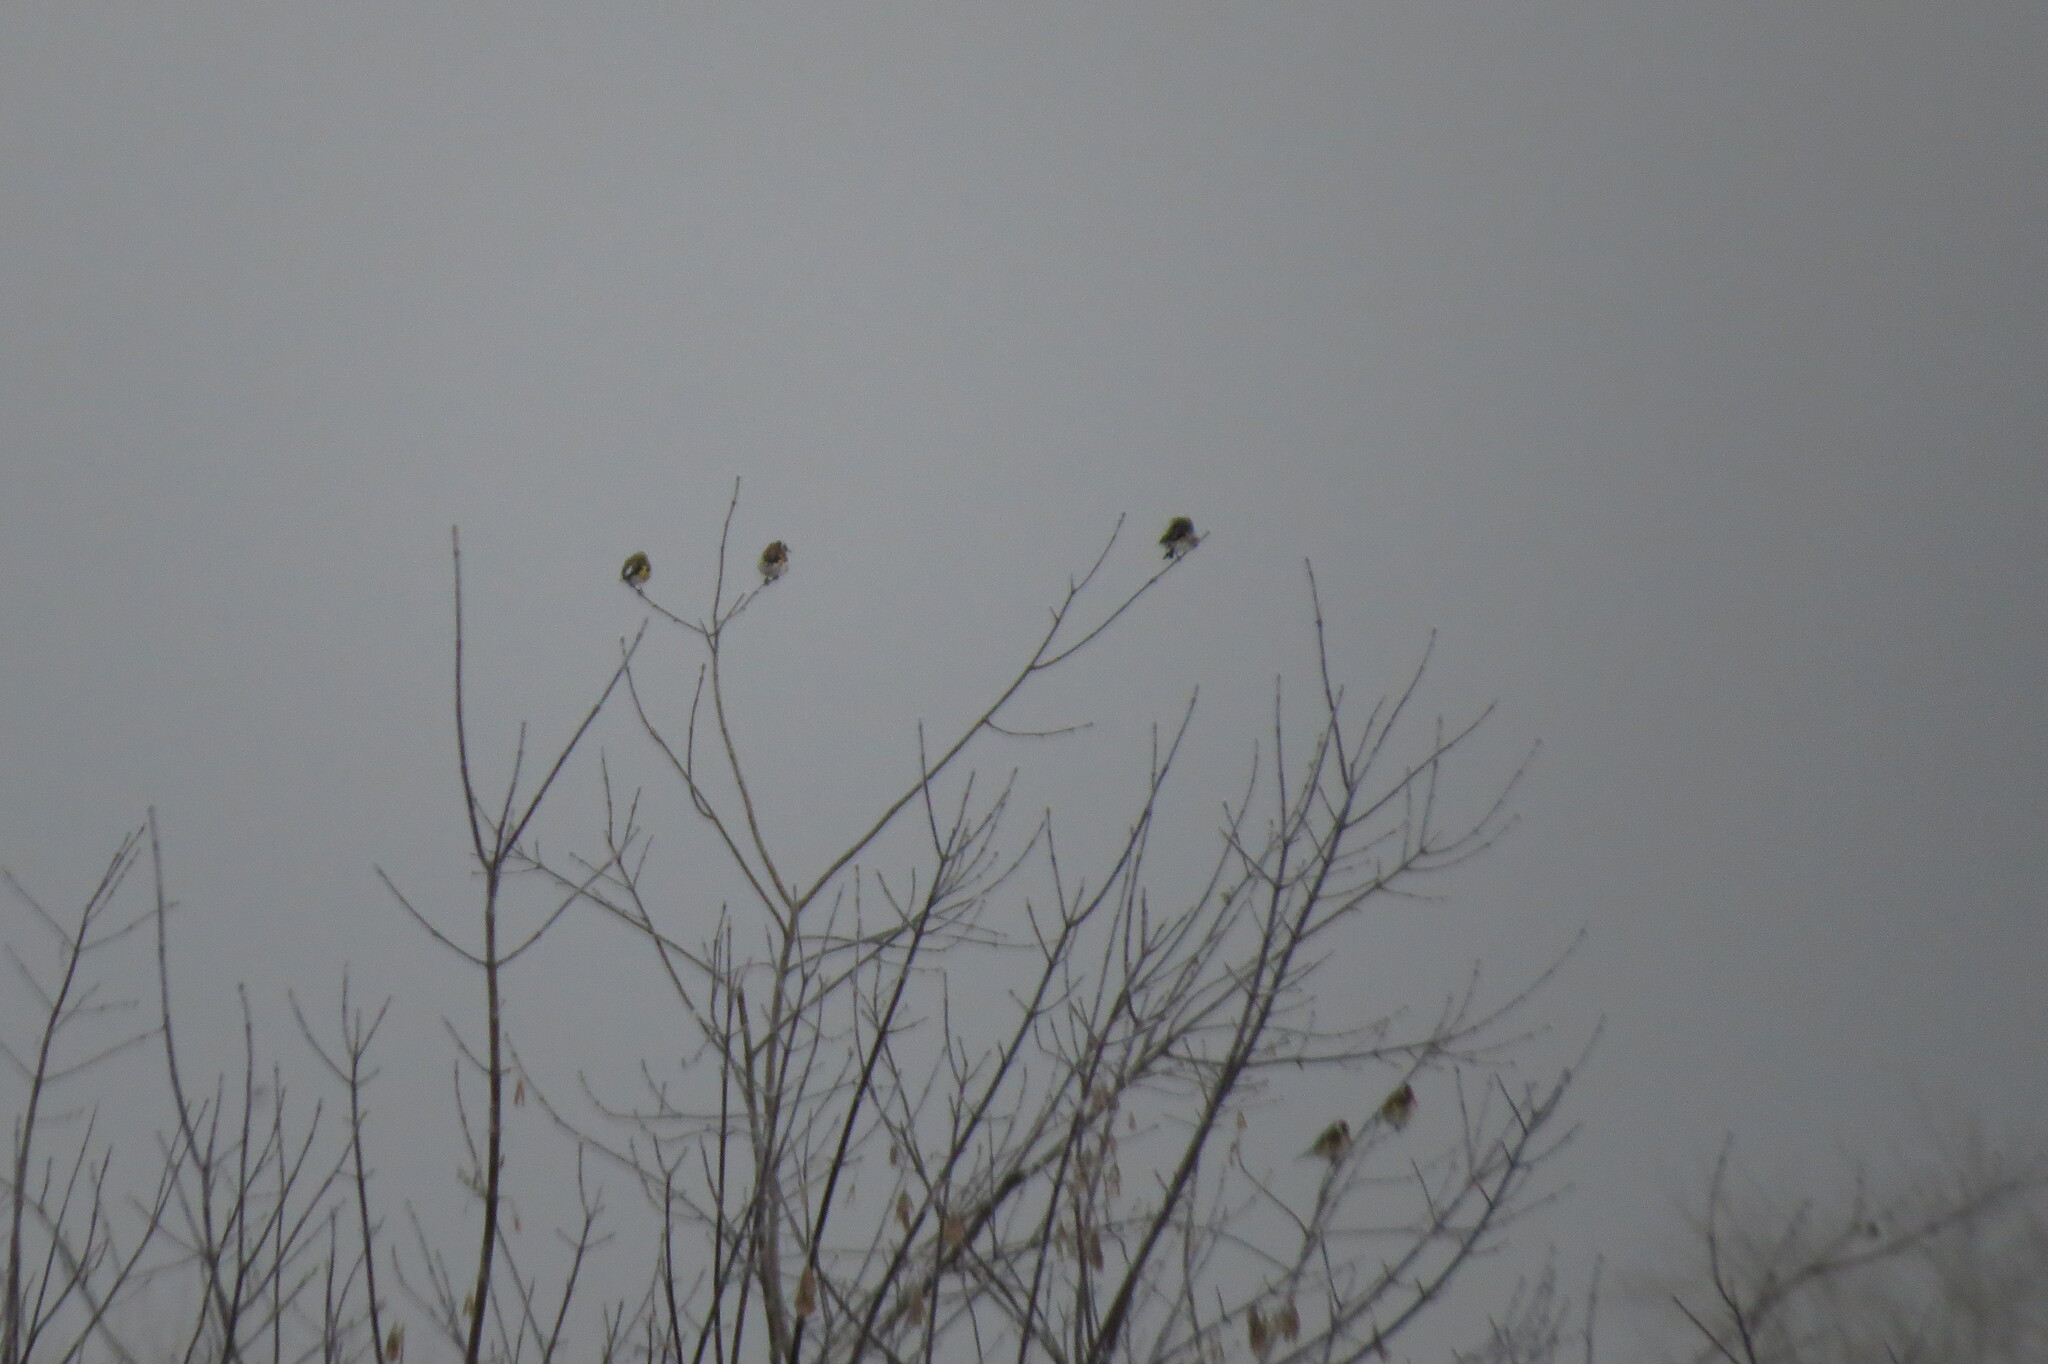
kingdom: Animalia
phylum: Chordata
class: Aves
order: Passeriformes
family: Fringillidae
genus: Carduelis
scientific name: Carduelis carduelis
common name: European goldfinch
